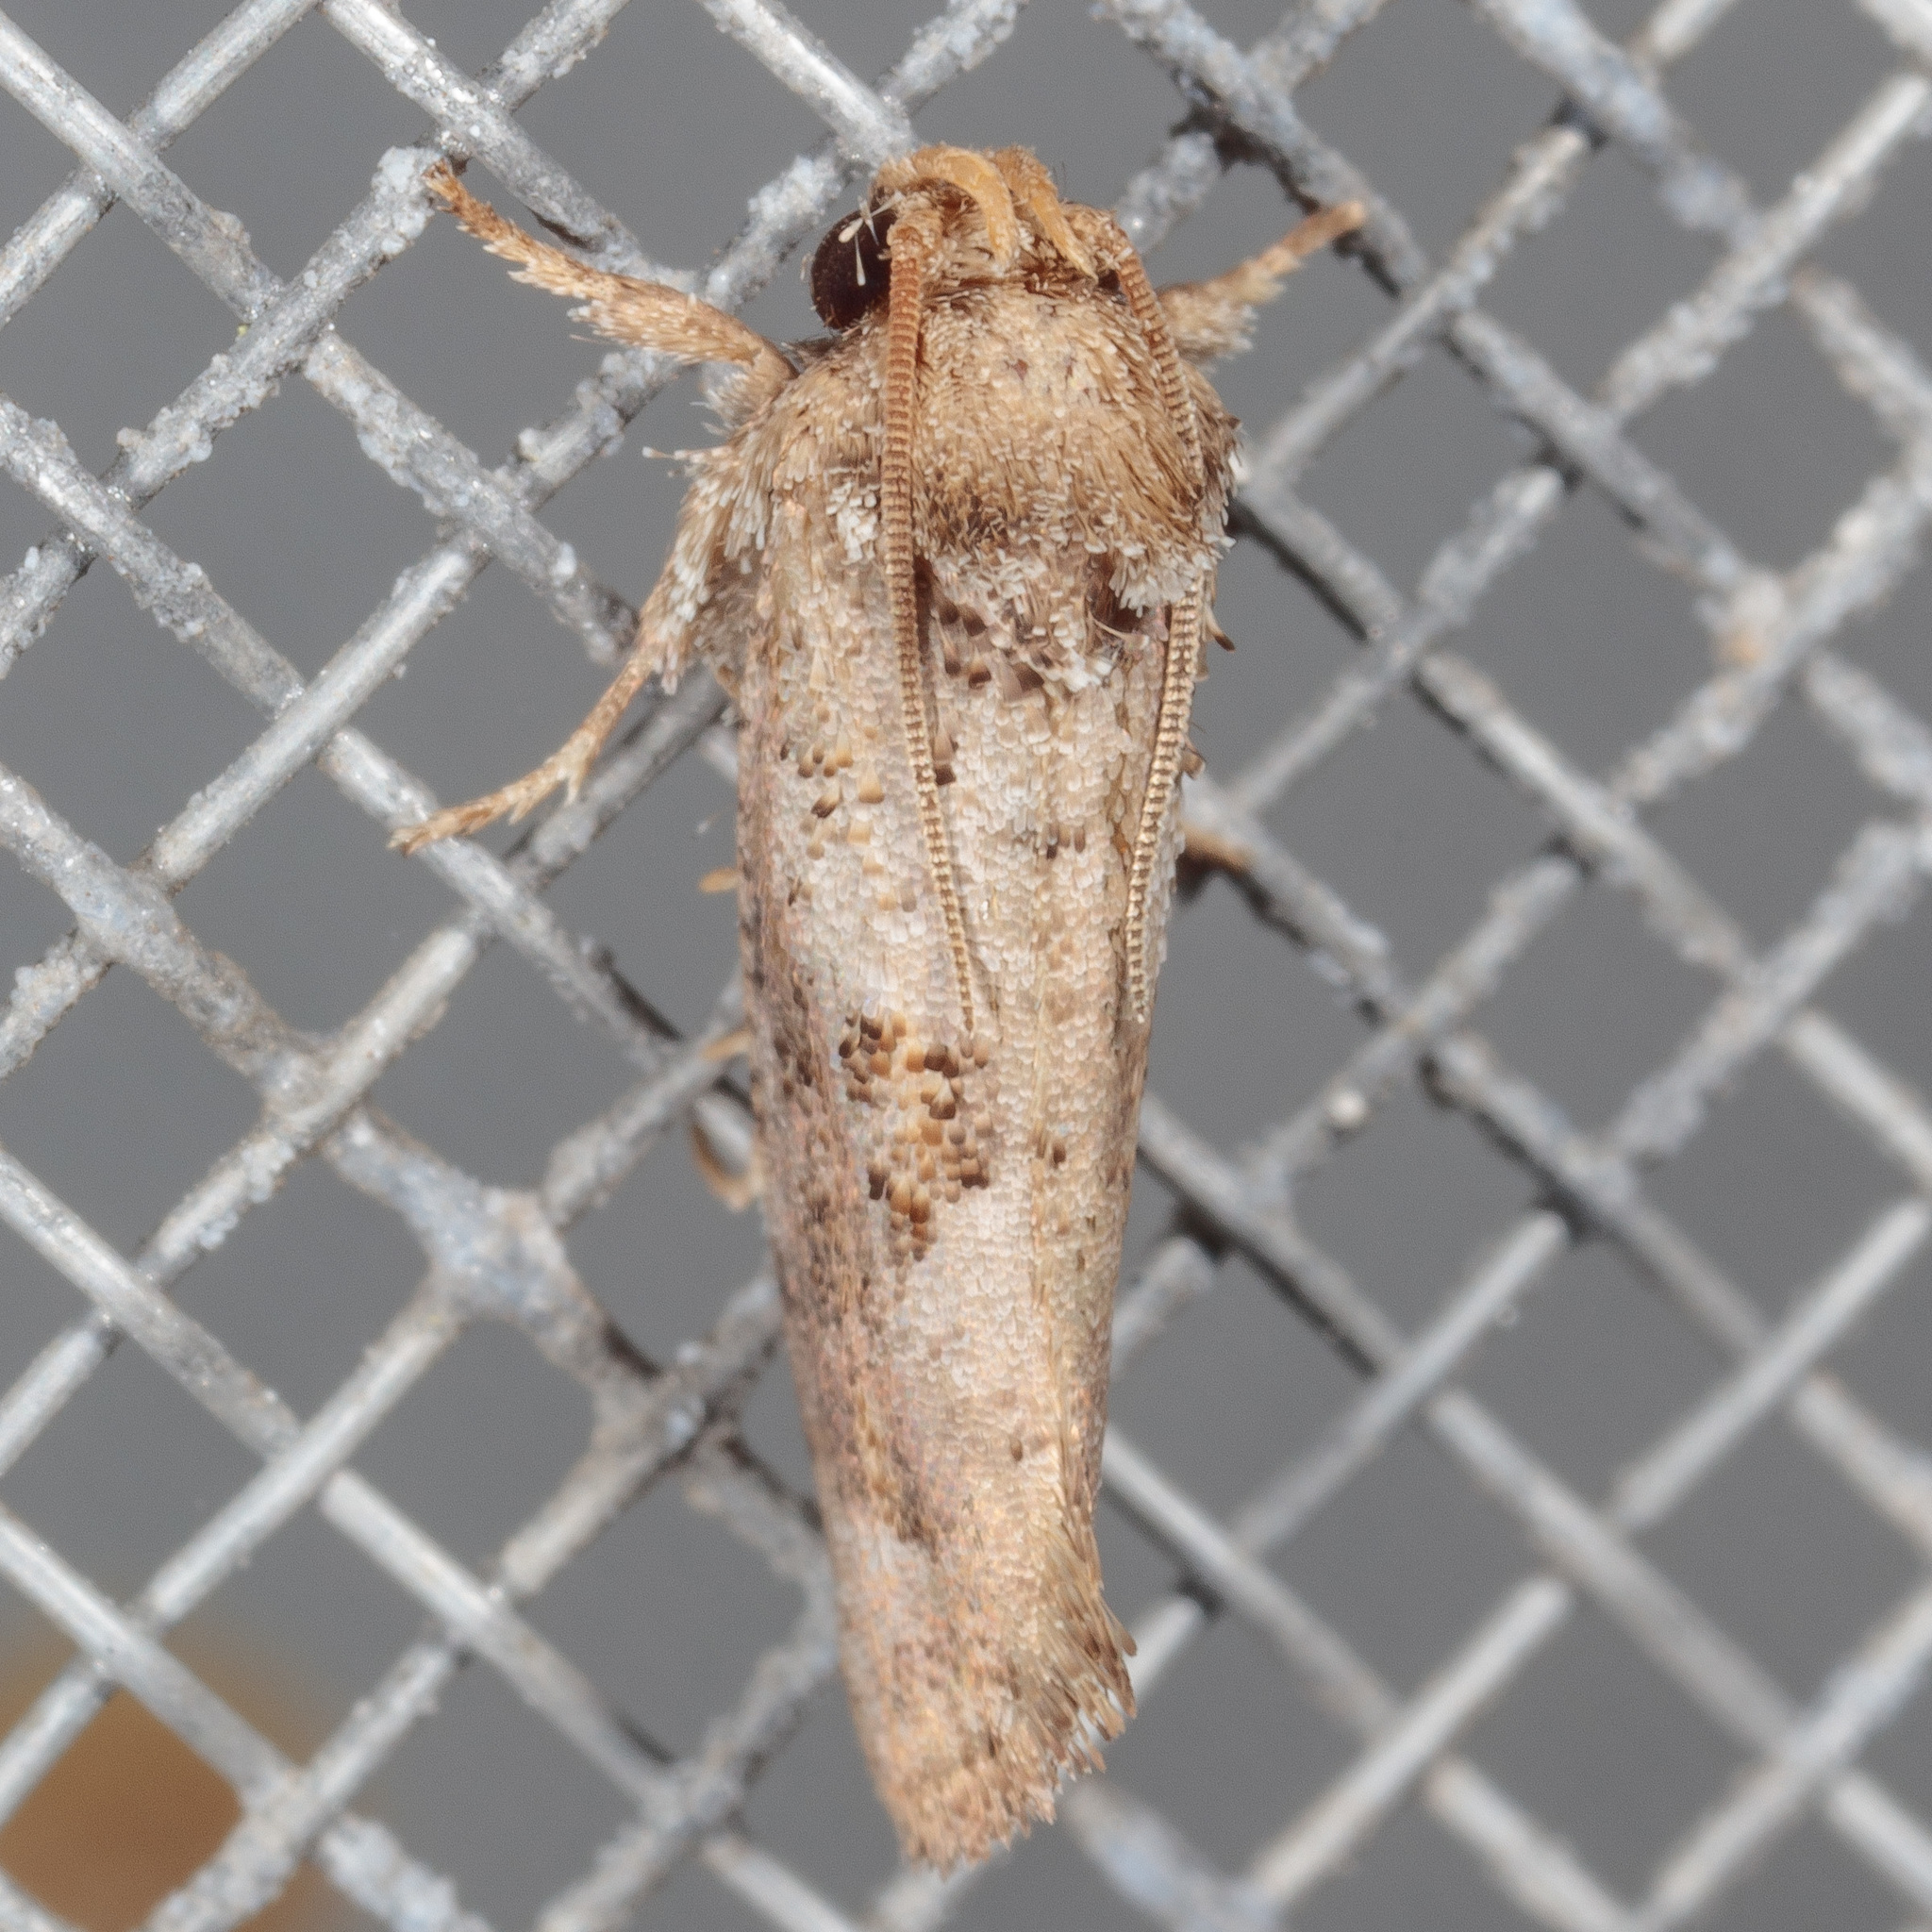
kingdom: Animalia
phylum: Arthropoda
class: Insecta
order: Lepidoptera
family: Tineidae
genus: Acrolophus
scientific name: Acrolophus piger
